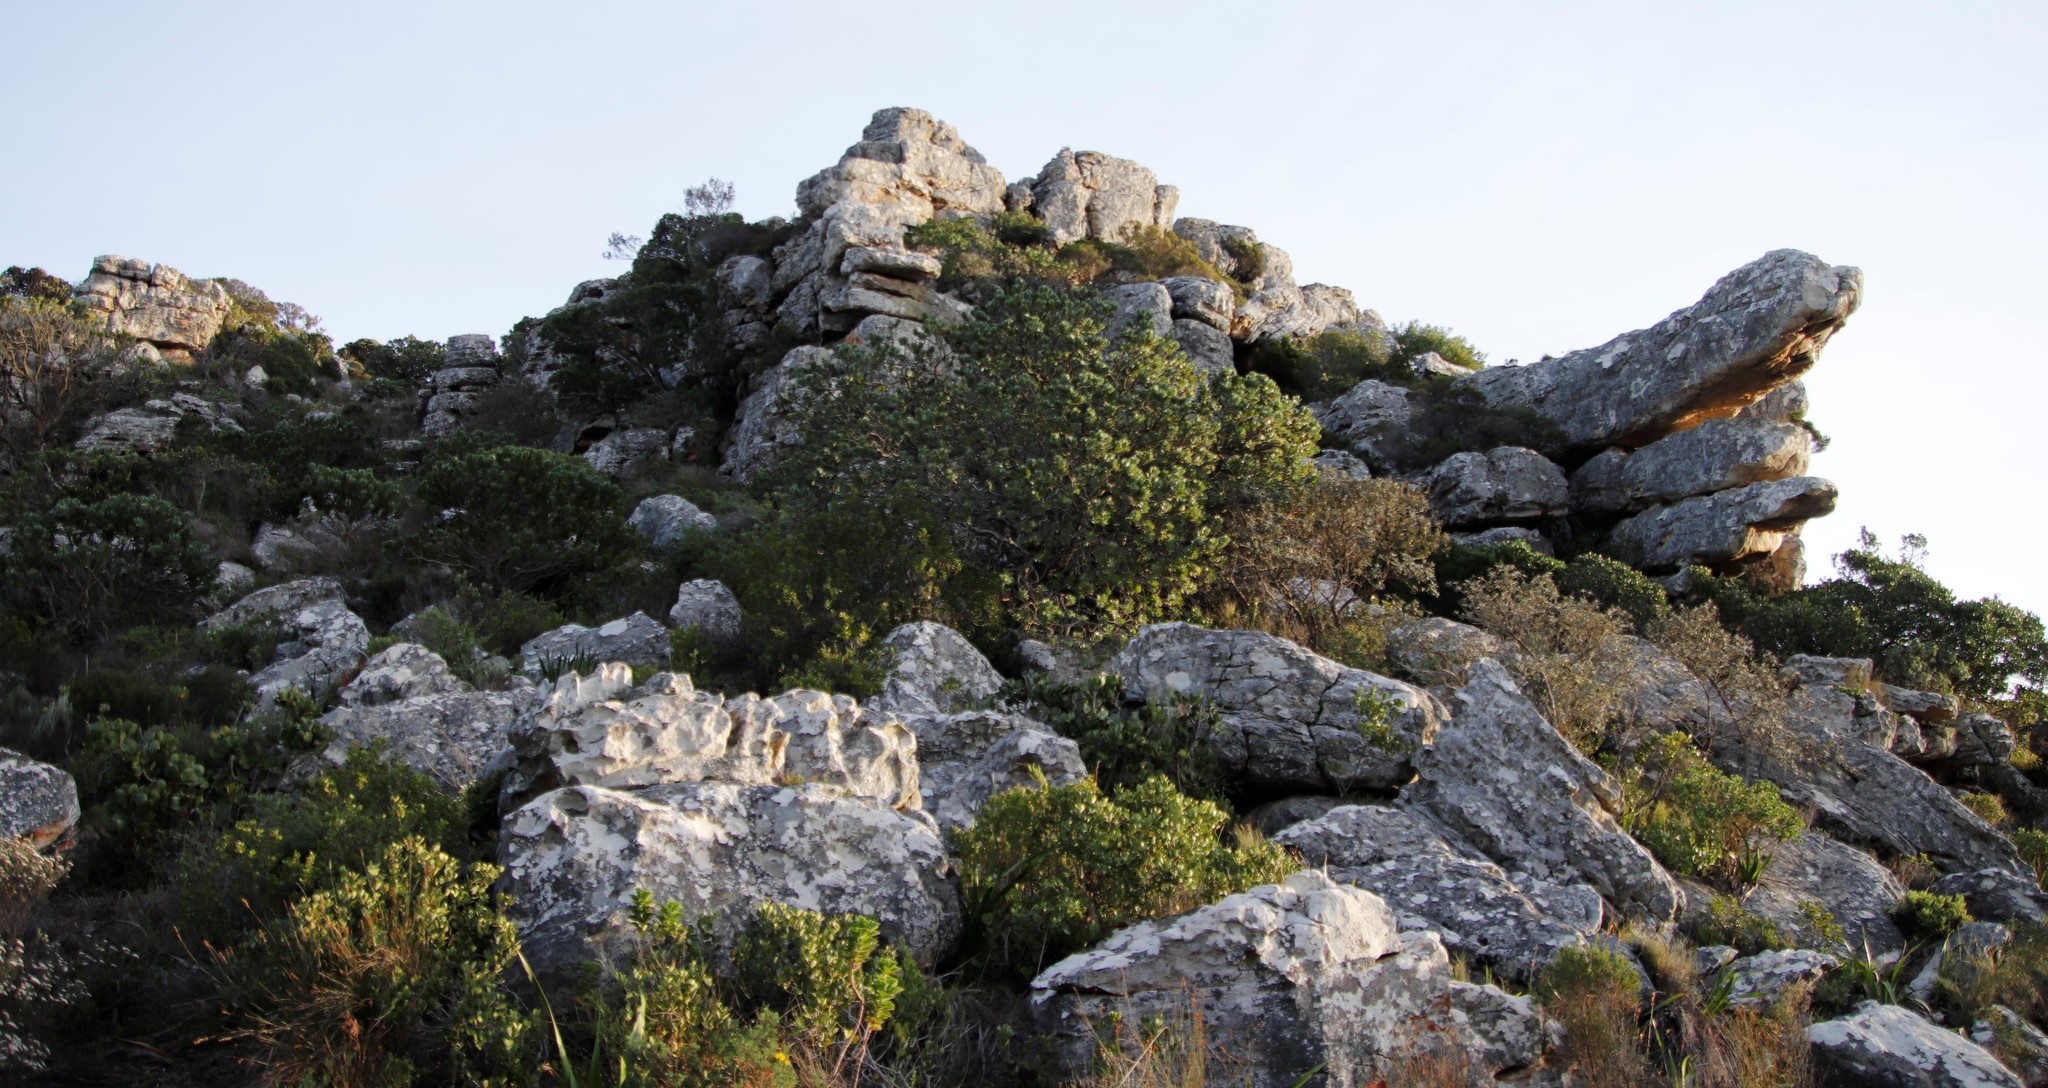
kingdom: Plantae
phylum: Tracheophyta
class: Magnoliopsida
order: Proteales
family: Proteaceae
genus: Leucospermum
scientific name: Leucospermum conocarpodendron
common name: Tree pincushion
